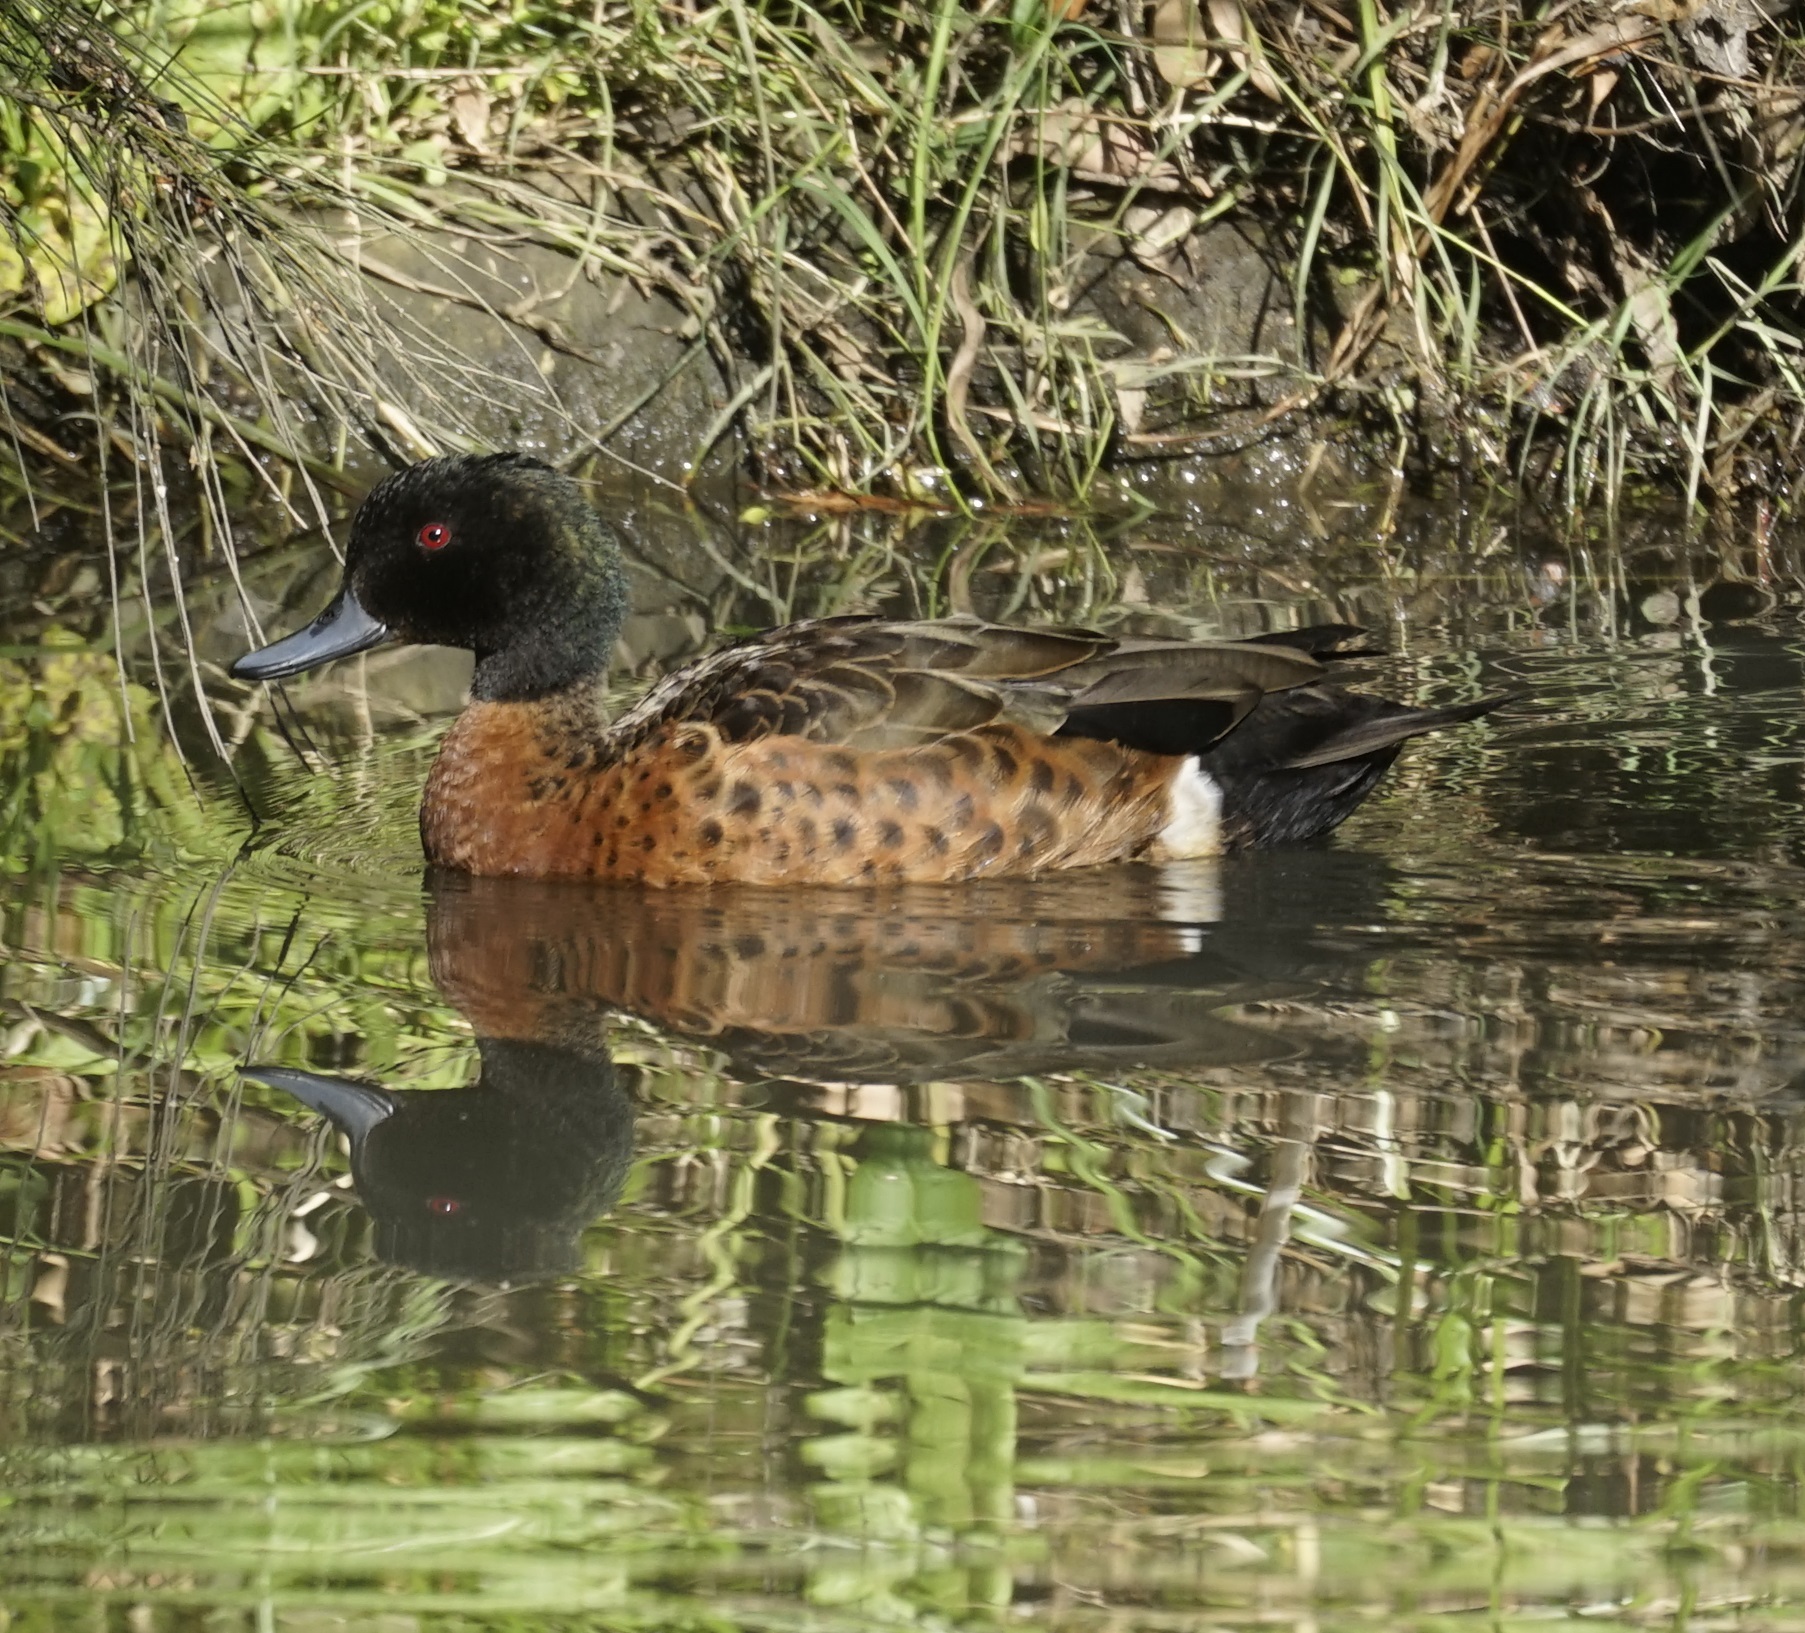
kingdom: Animalia
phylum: Chordata
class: Aves
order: Anseriformes
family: Anatidae
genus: Anas
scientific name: Anas castanea
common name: Chestnut teal
